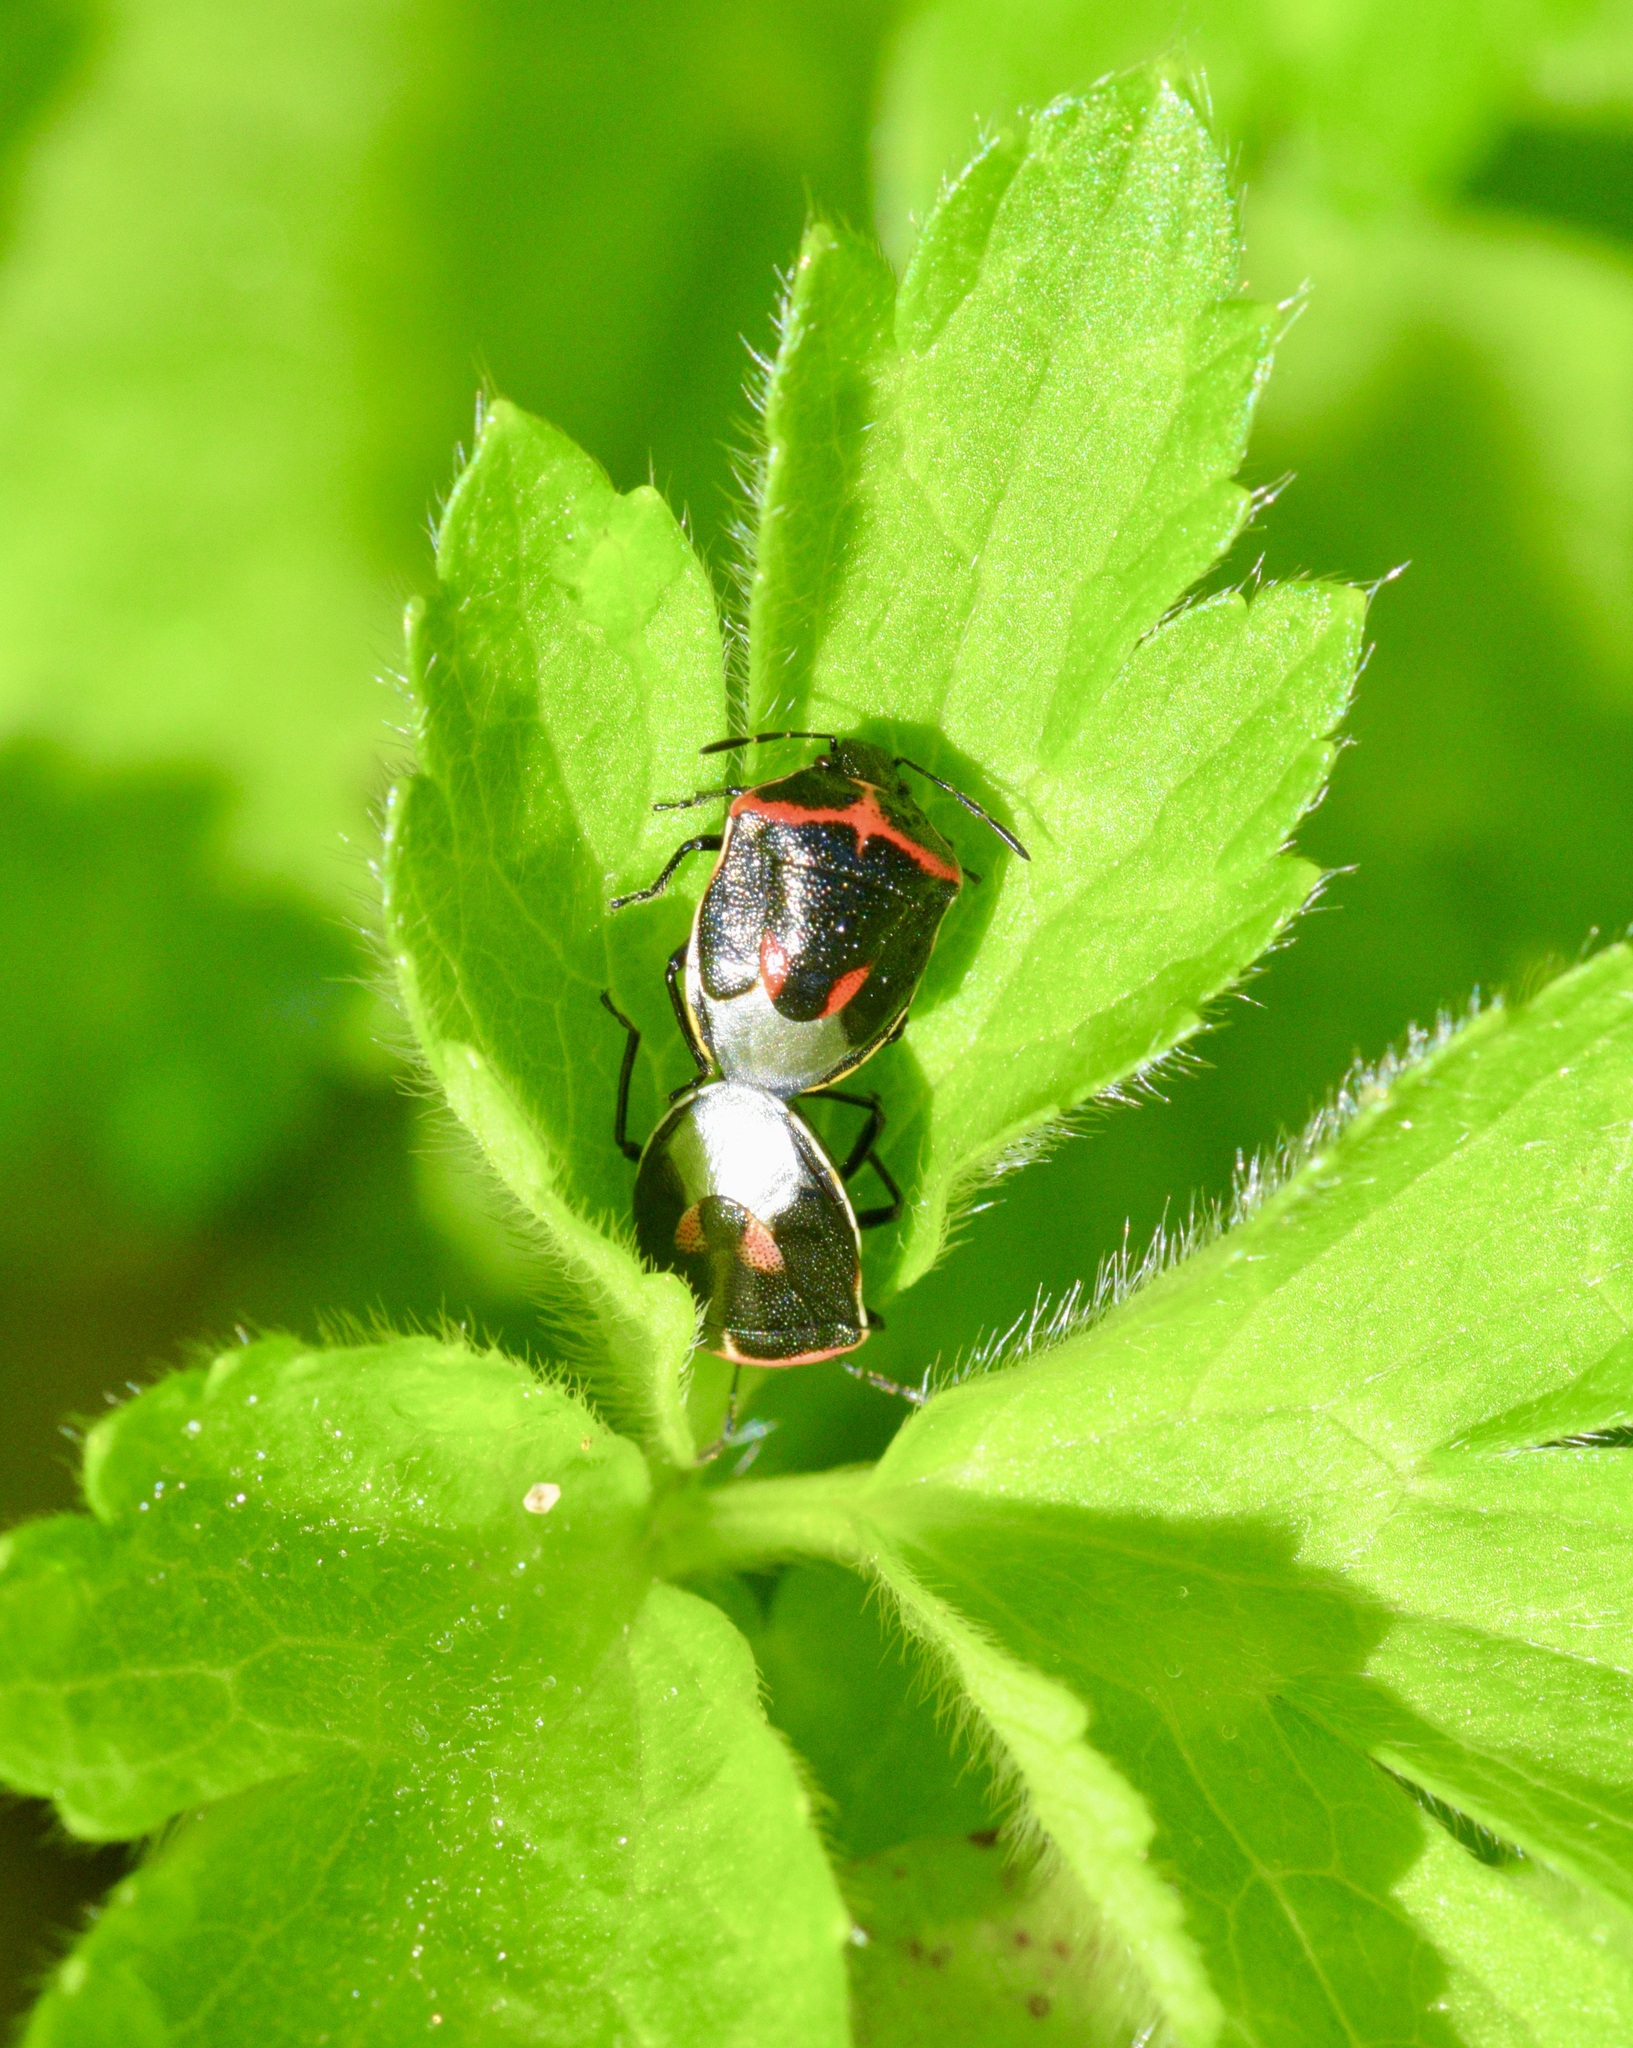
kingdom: Animalia
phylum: Arthropoda
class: Insecta
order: Hemiptera
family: Pentatomidae
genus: Cosmopepla
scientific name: Cosmopepla lintneriana
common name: Twice-stabbed stink bug
